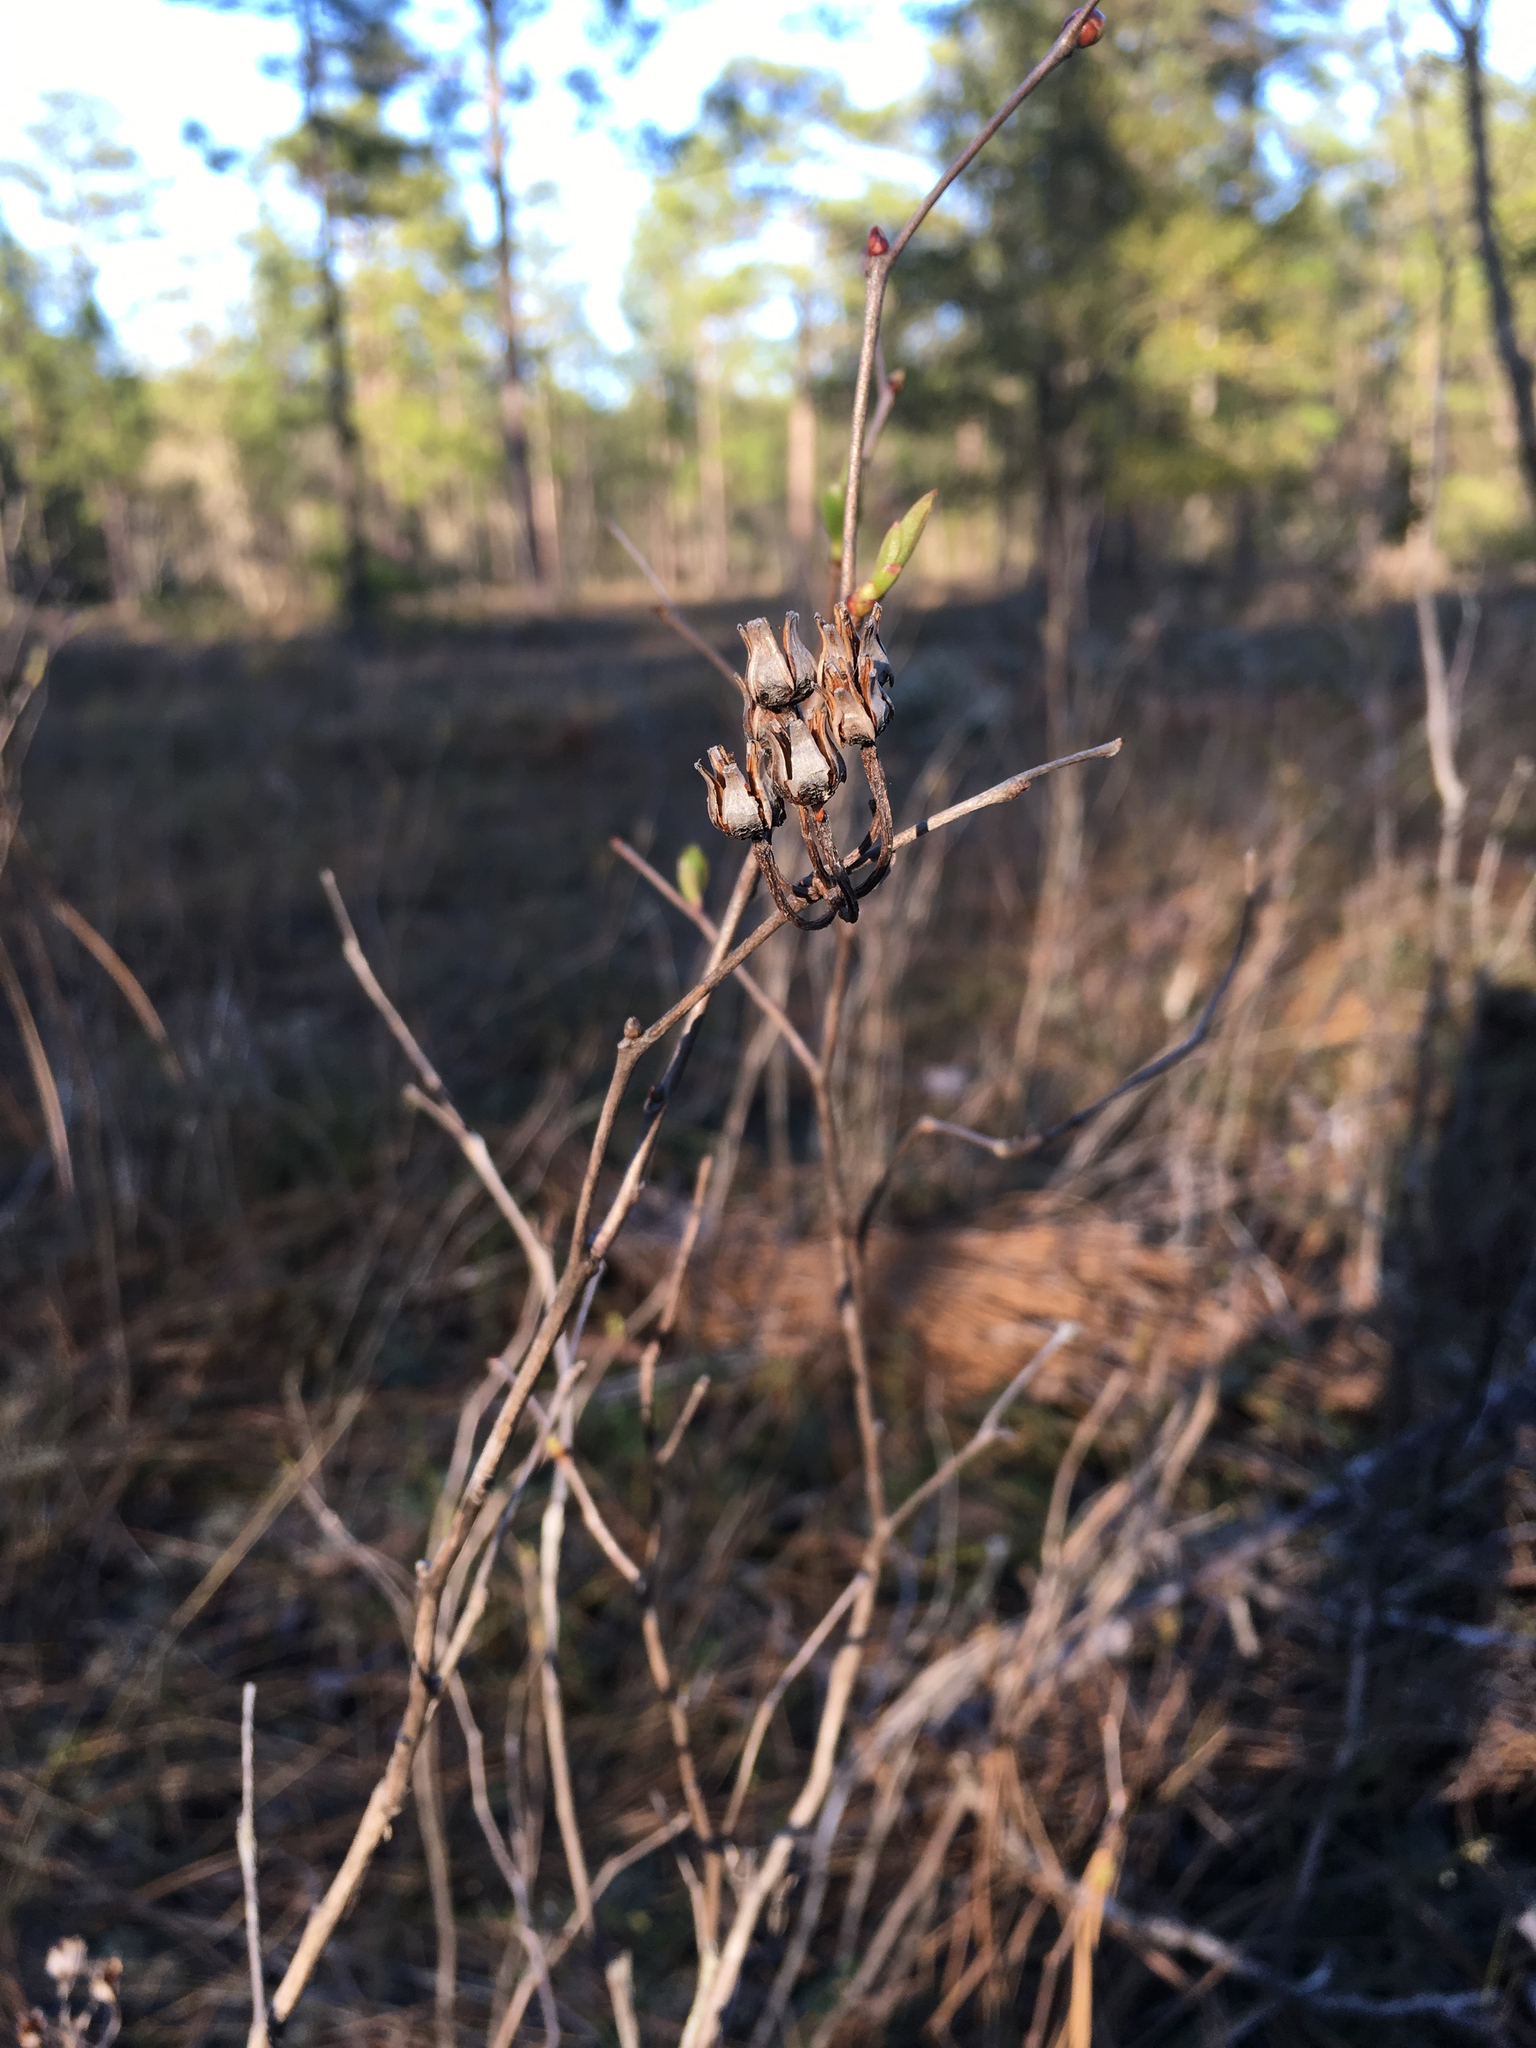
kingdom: Plantae
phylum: Tracheophyta
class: Magnoliopsida
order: Ericales
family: Ericaceae
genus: Lyonia
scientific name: Lyonia mariana
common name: Staggerbush
